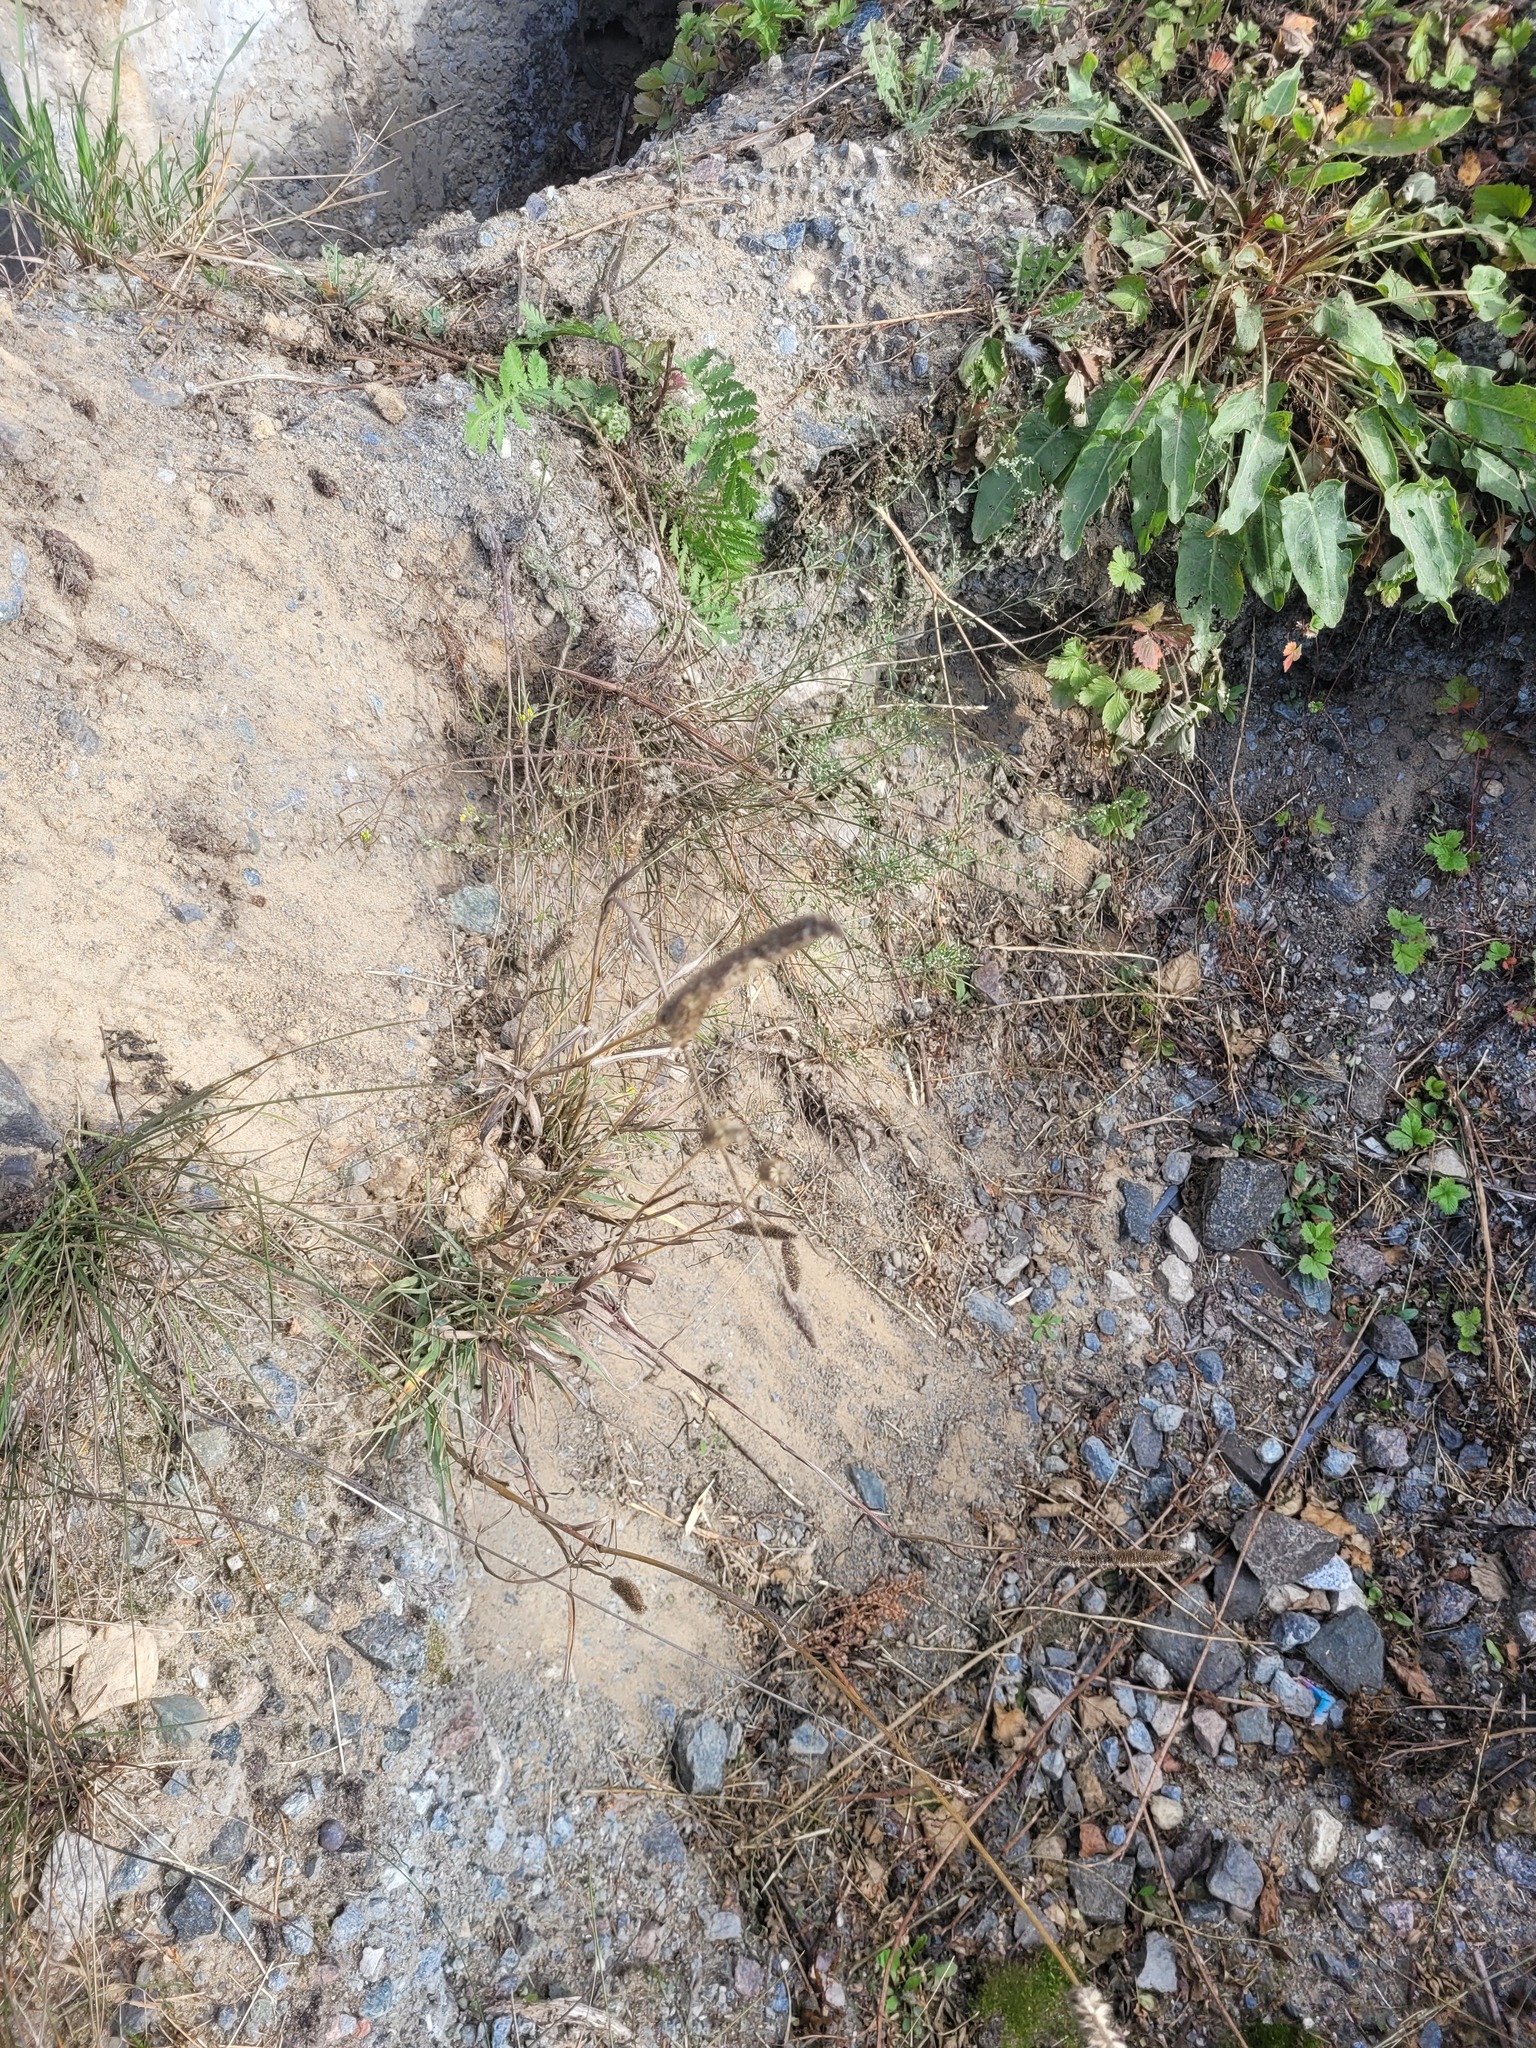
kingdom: Plantae
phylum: Tracheophyta
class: Liliopsida
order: Poales
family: Poaceae
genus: Phleum
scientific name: Phleum pratense
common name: Timothy grass
